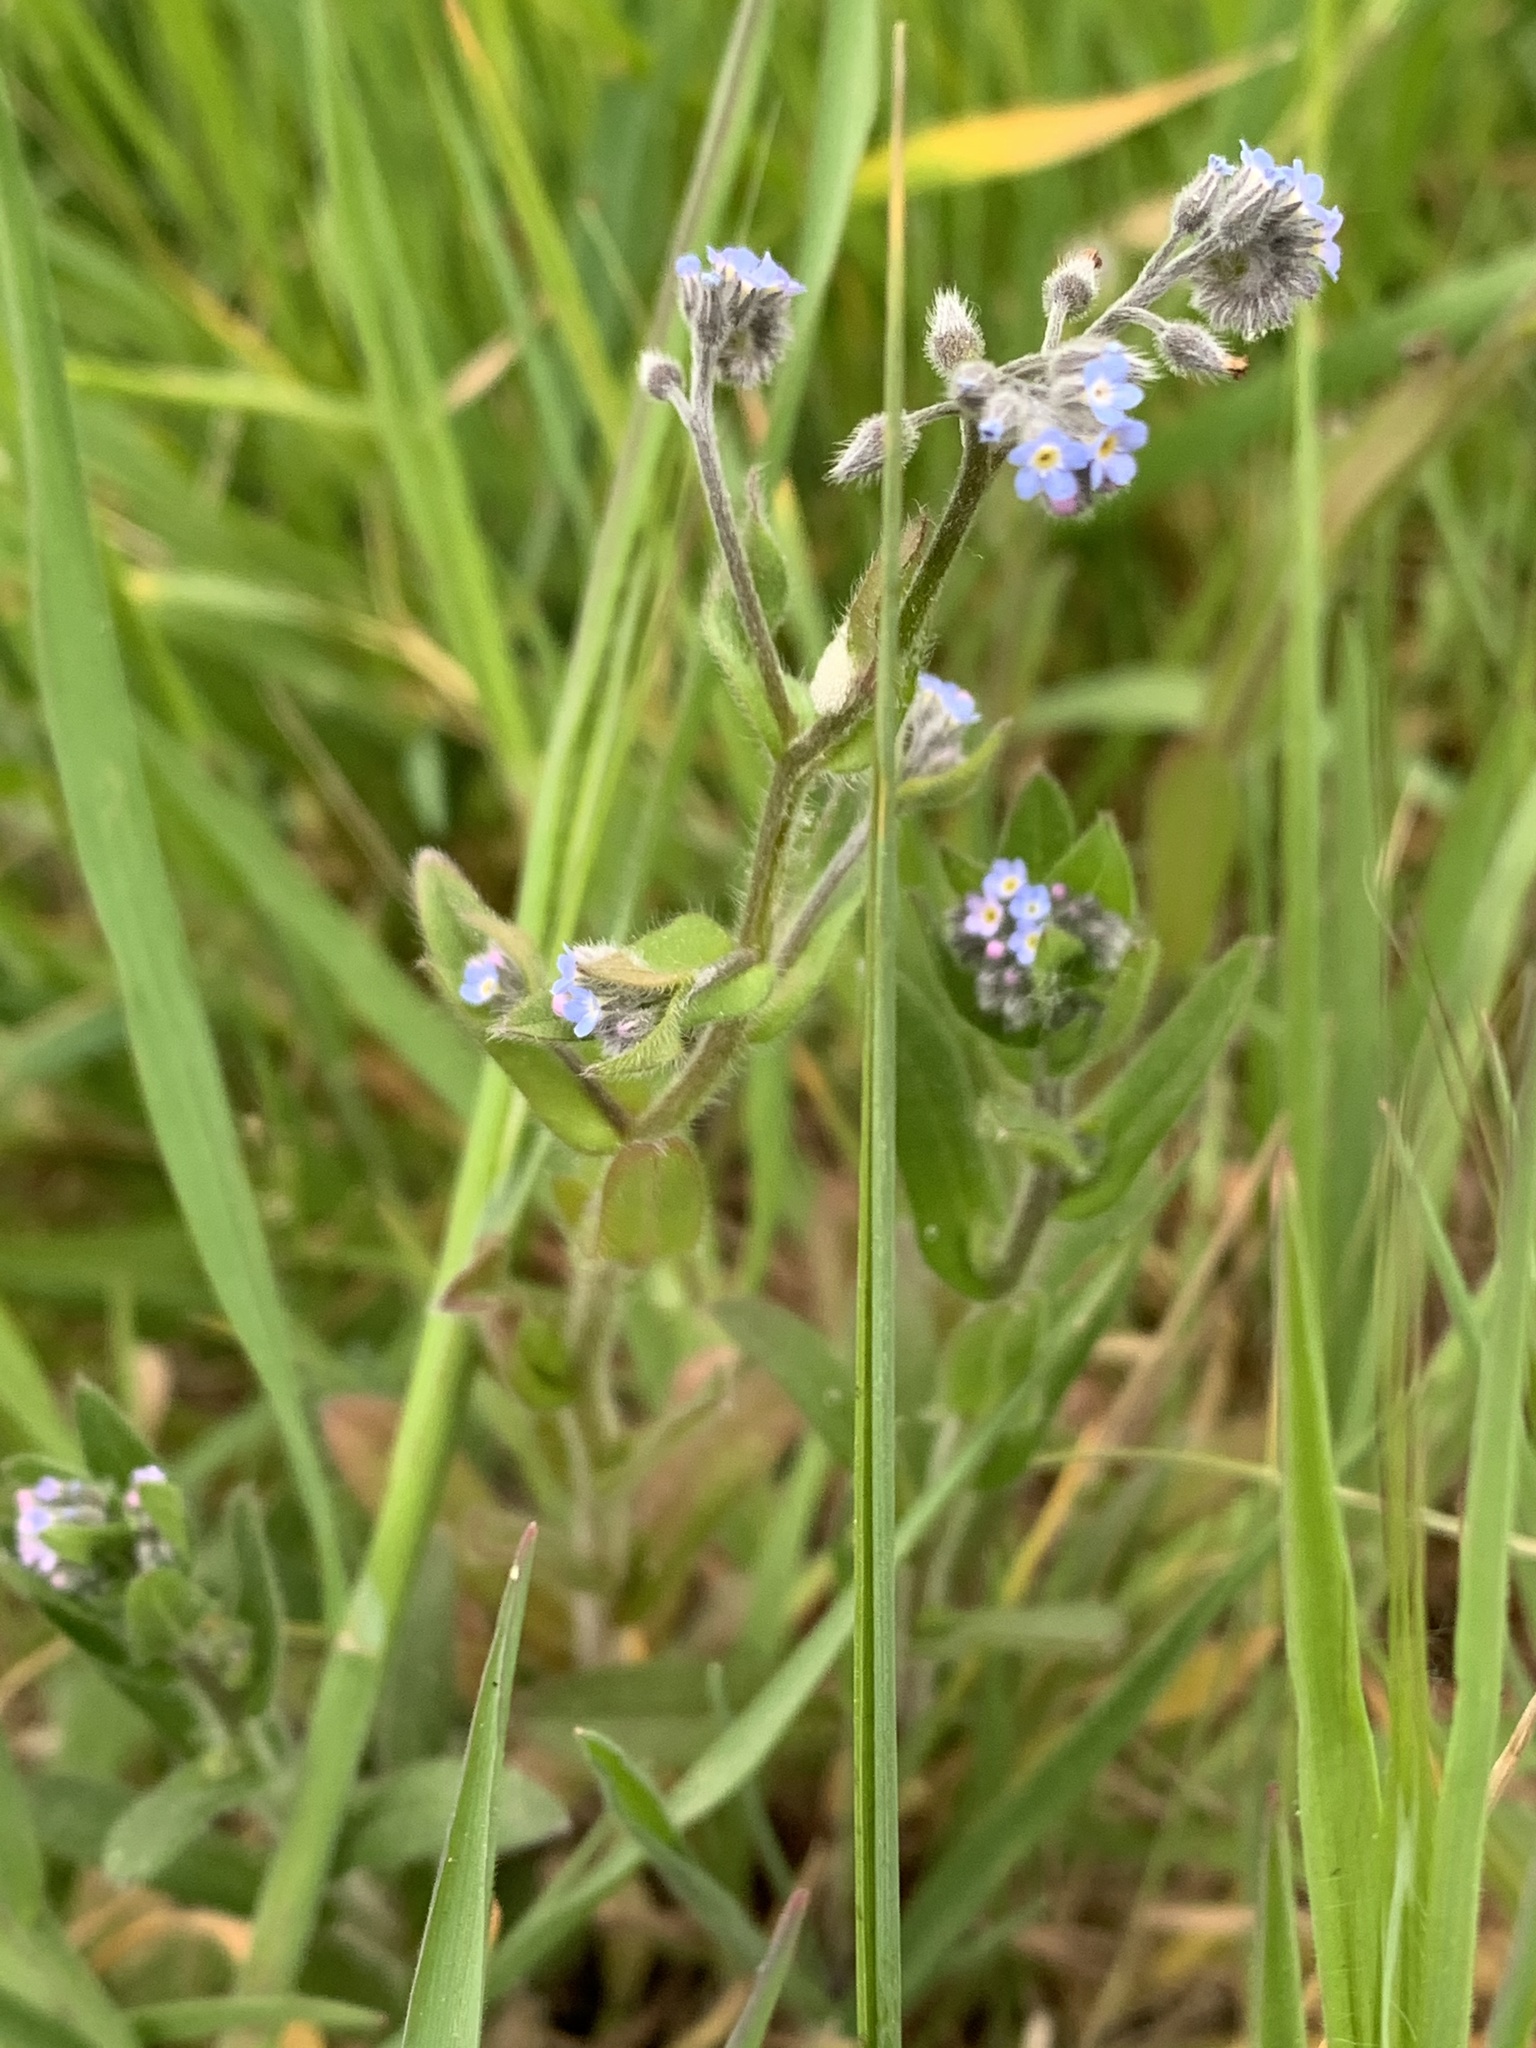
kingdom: Plantae
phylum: Tracheophyta
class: Magnoliopsida
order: Boraginales
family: Boraginaceae
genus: Myosotis
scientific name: Myosotis ramosissima
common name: Early forget-me-not
